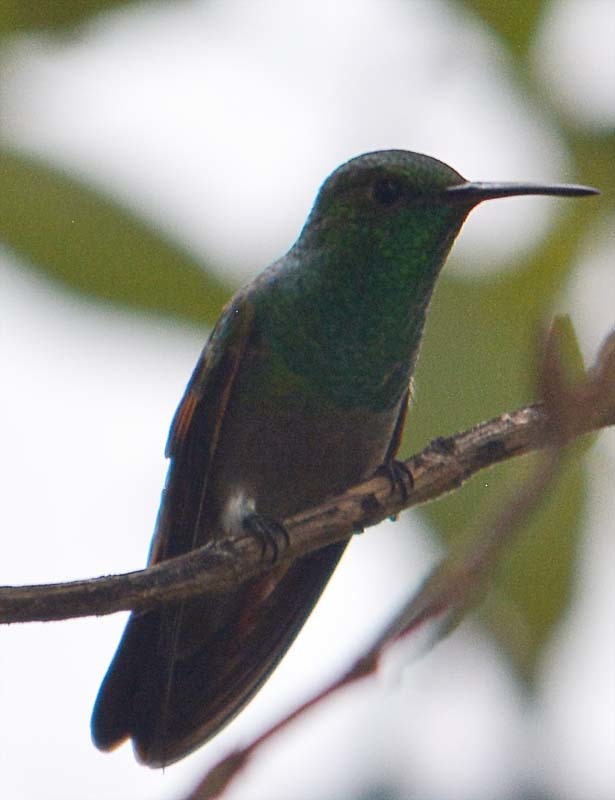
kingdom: Animalia
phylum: Chordata
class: Aves
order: Apodiformes
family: Trochilidae
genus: Saucerottia
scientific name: Saucerottia beryllina
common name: Berylline hummingbird
